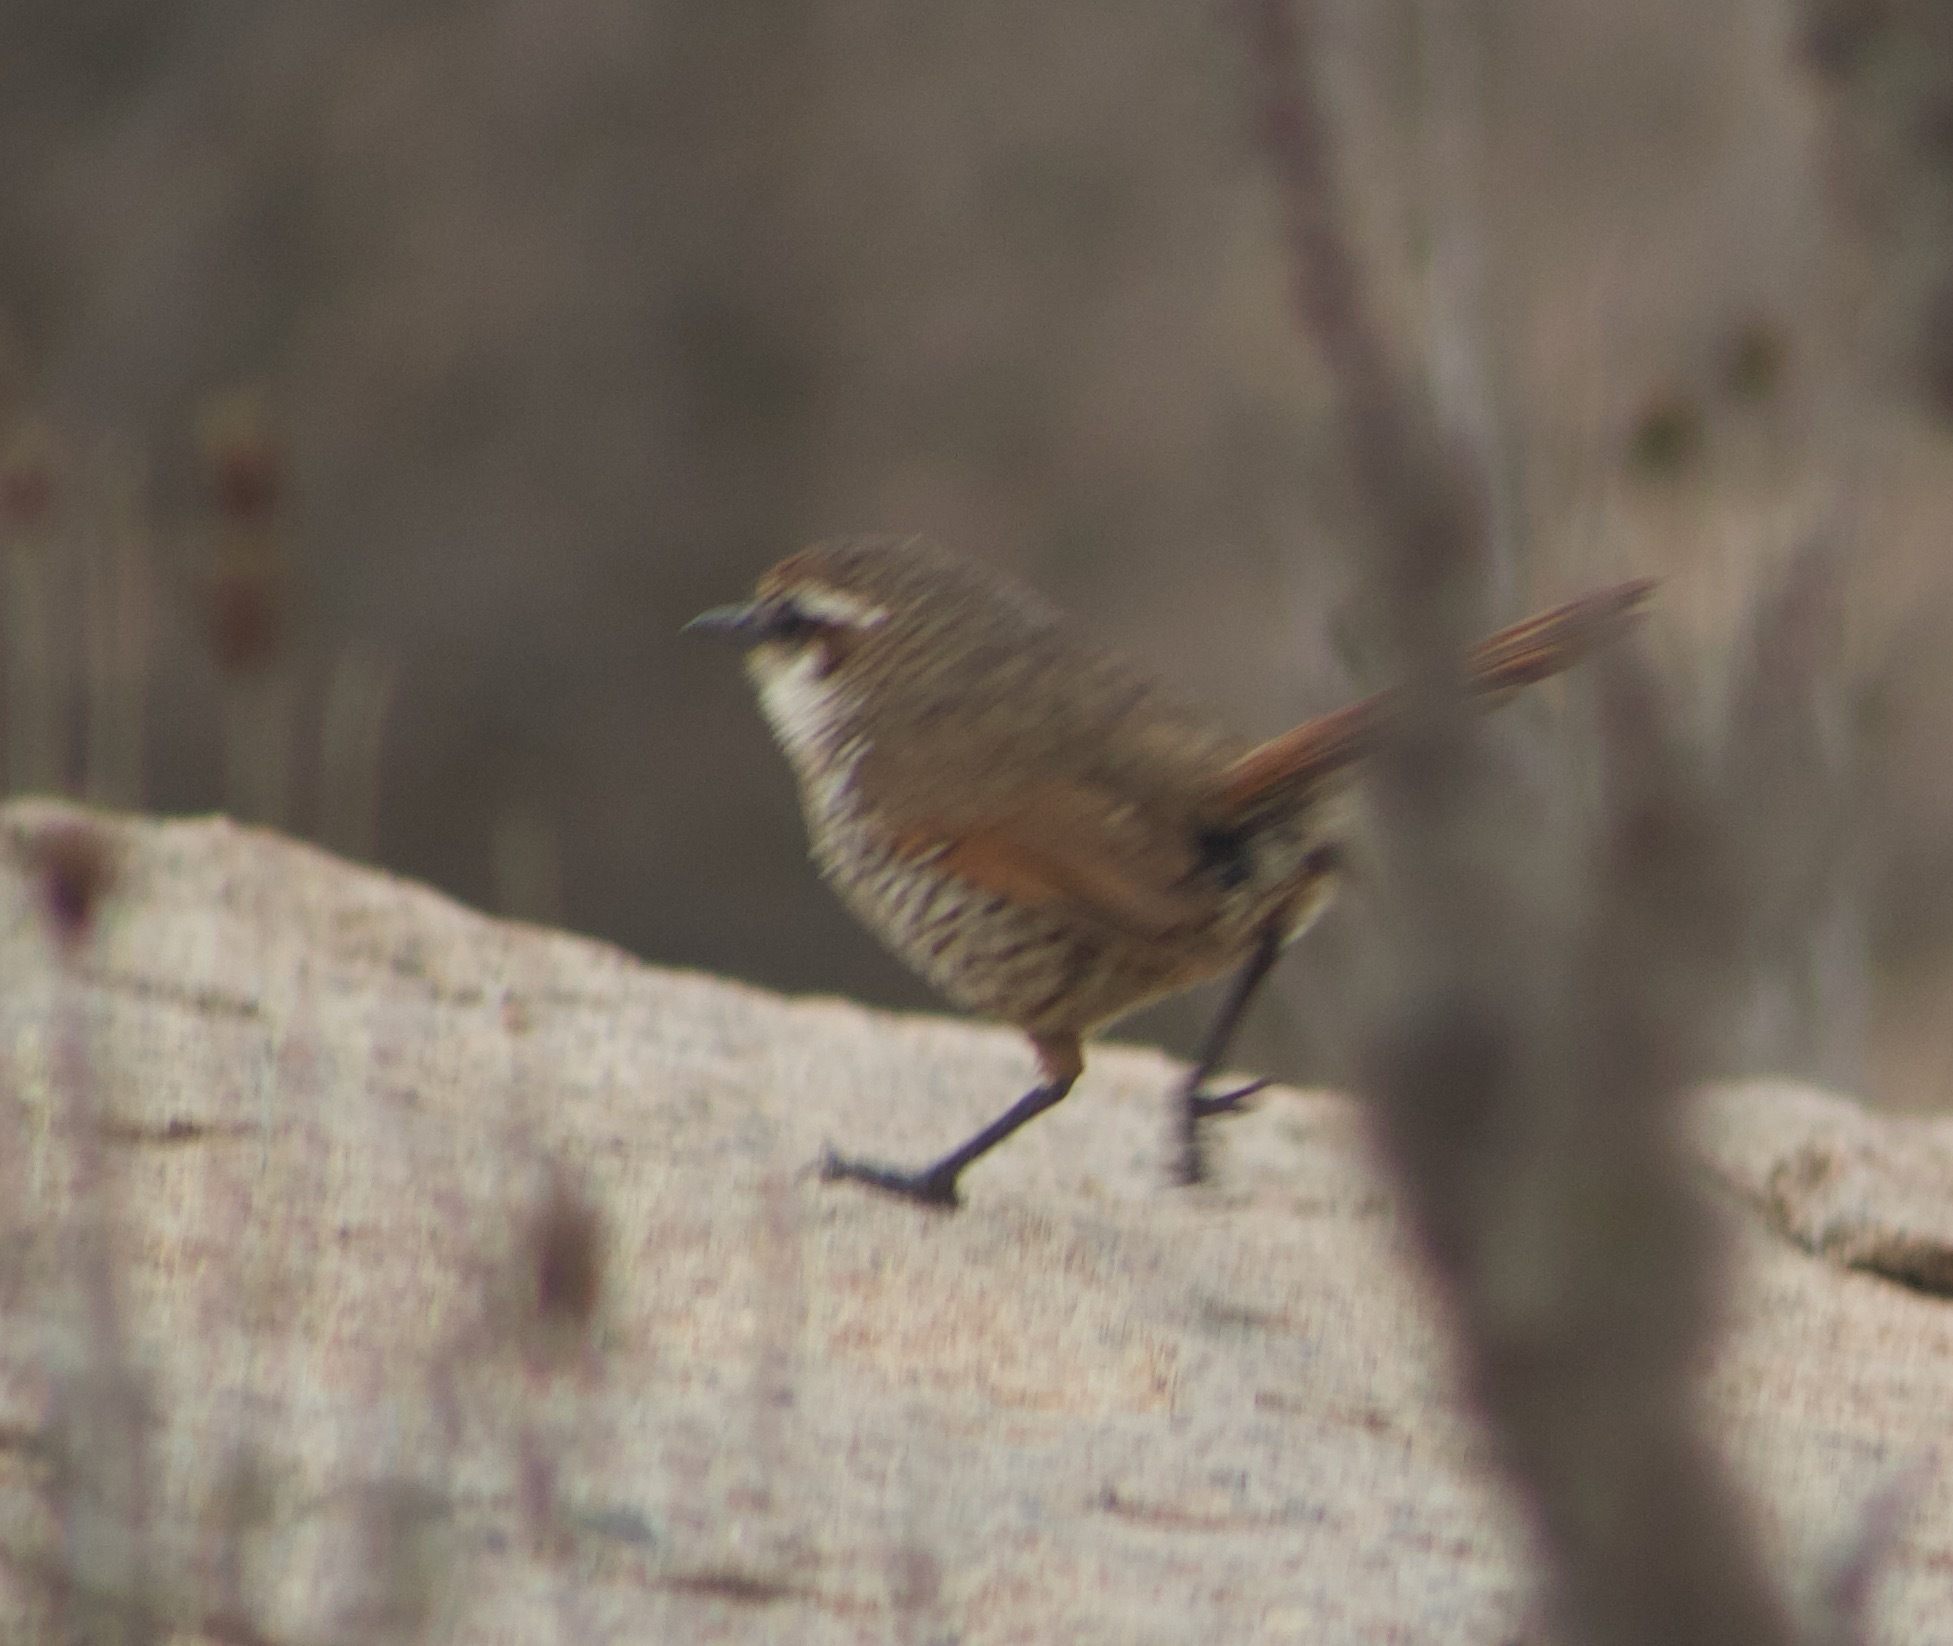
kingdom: Animalia
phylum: Chordata
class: Aves
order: Passeriformes
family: Rhinocryptidae
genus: Scelorchilus
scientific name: Scelorchilus albicollis
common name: White-throated tapaculo
